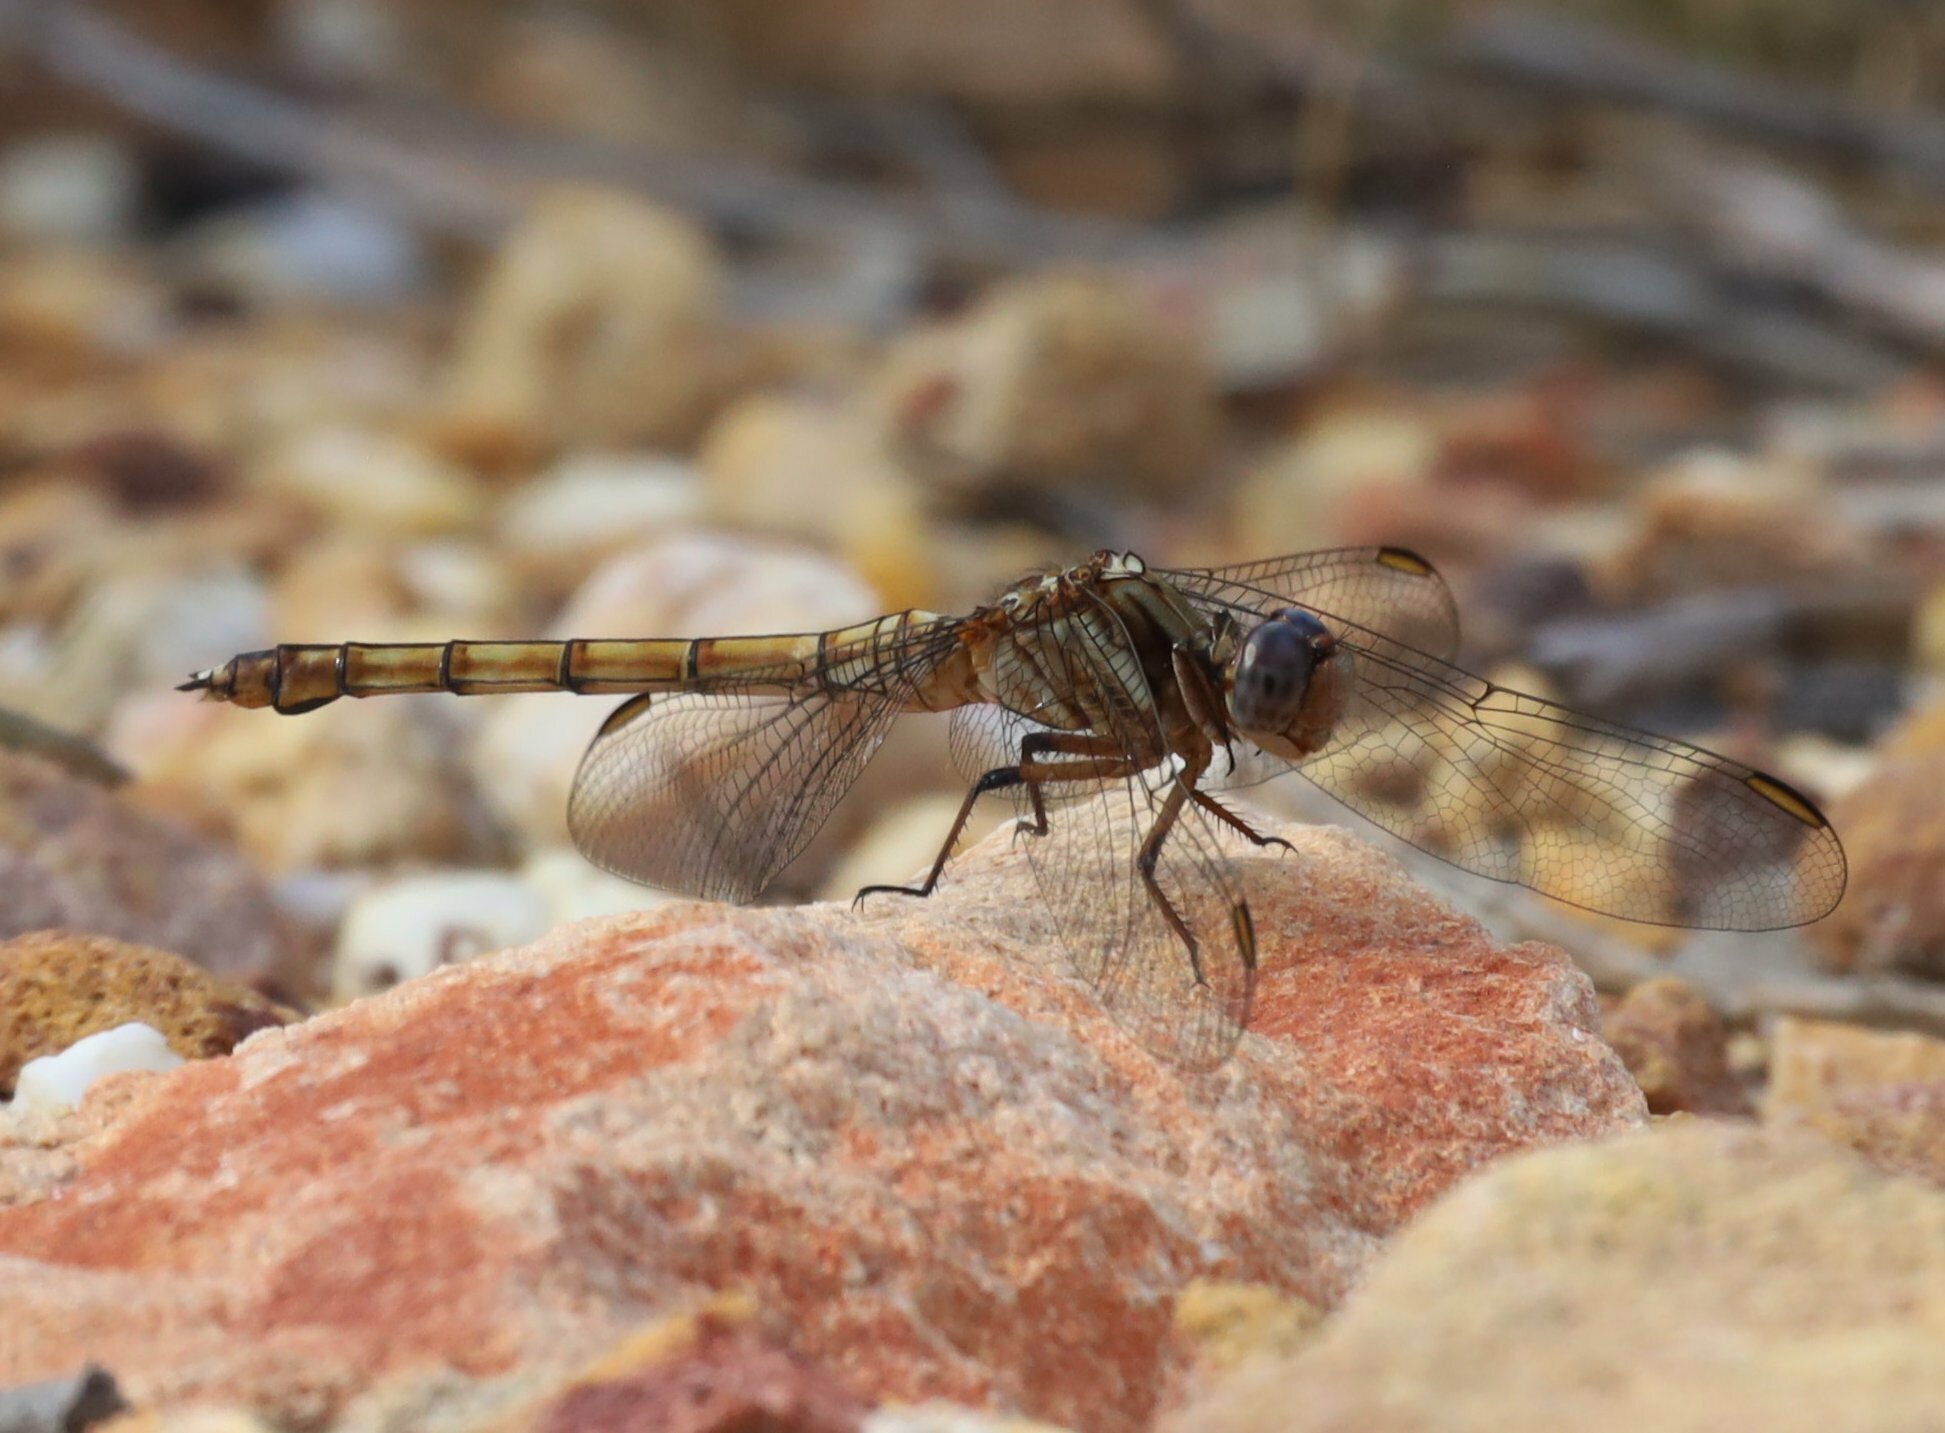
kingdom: Animalia
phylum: Arthropoda
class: Insecta
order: Odonata
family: Libellulidae
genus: Orthetrum
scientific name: Orthetrum julia
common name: Julia skimmer
